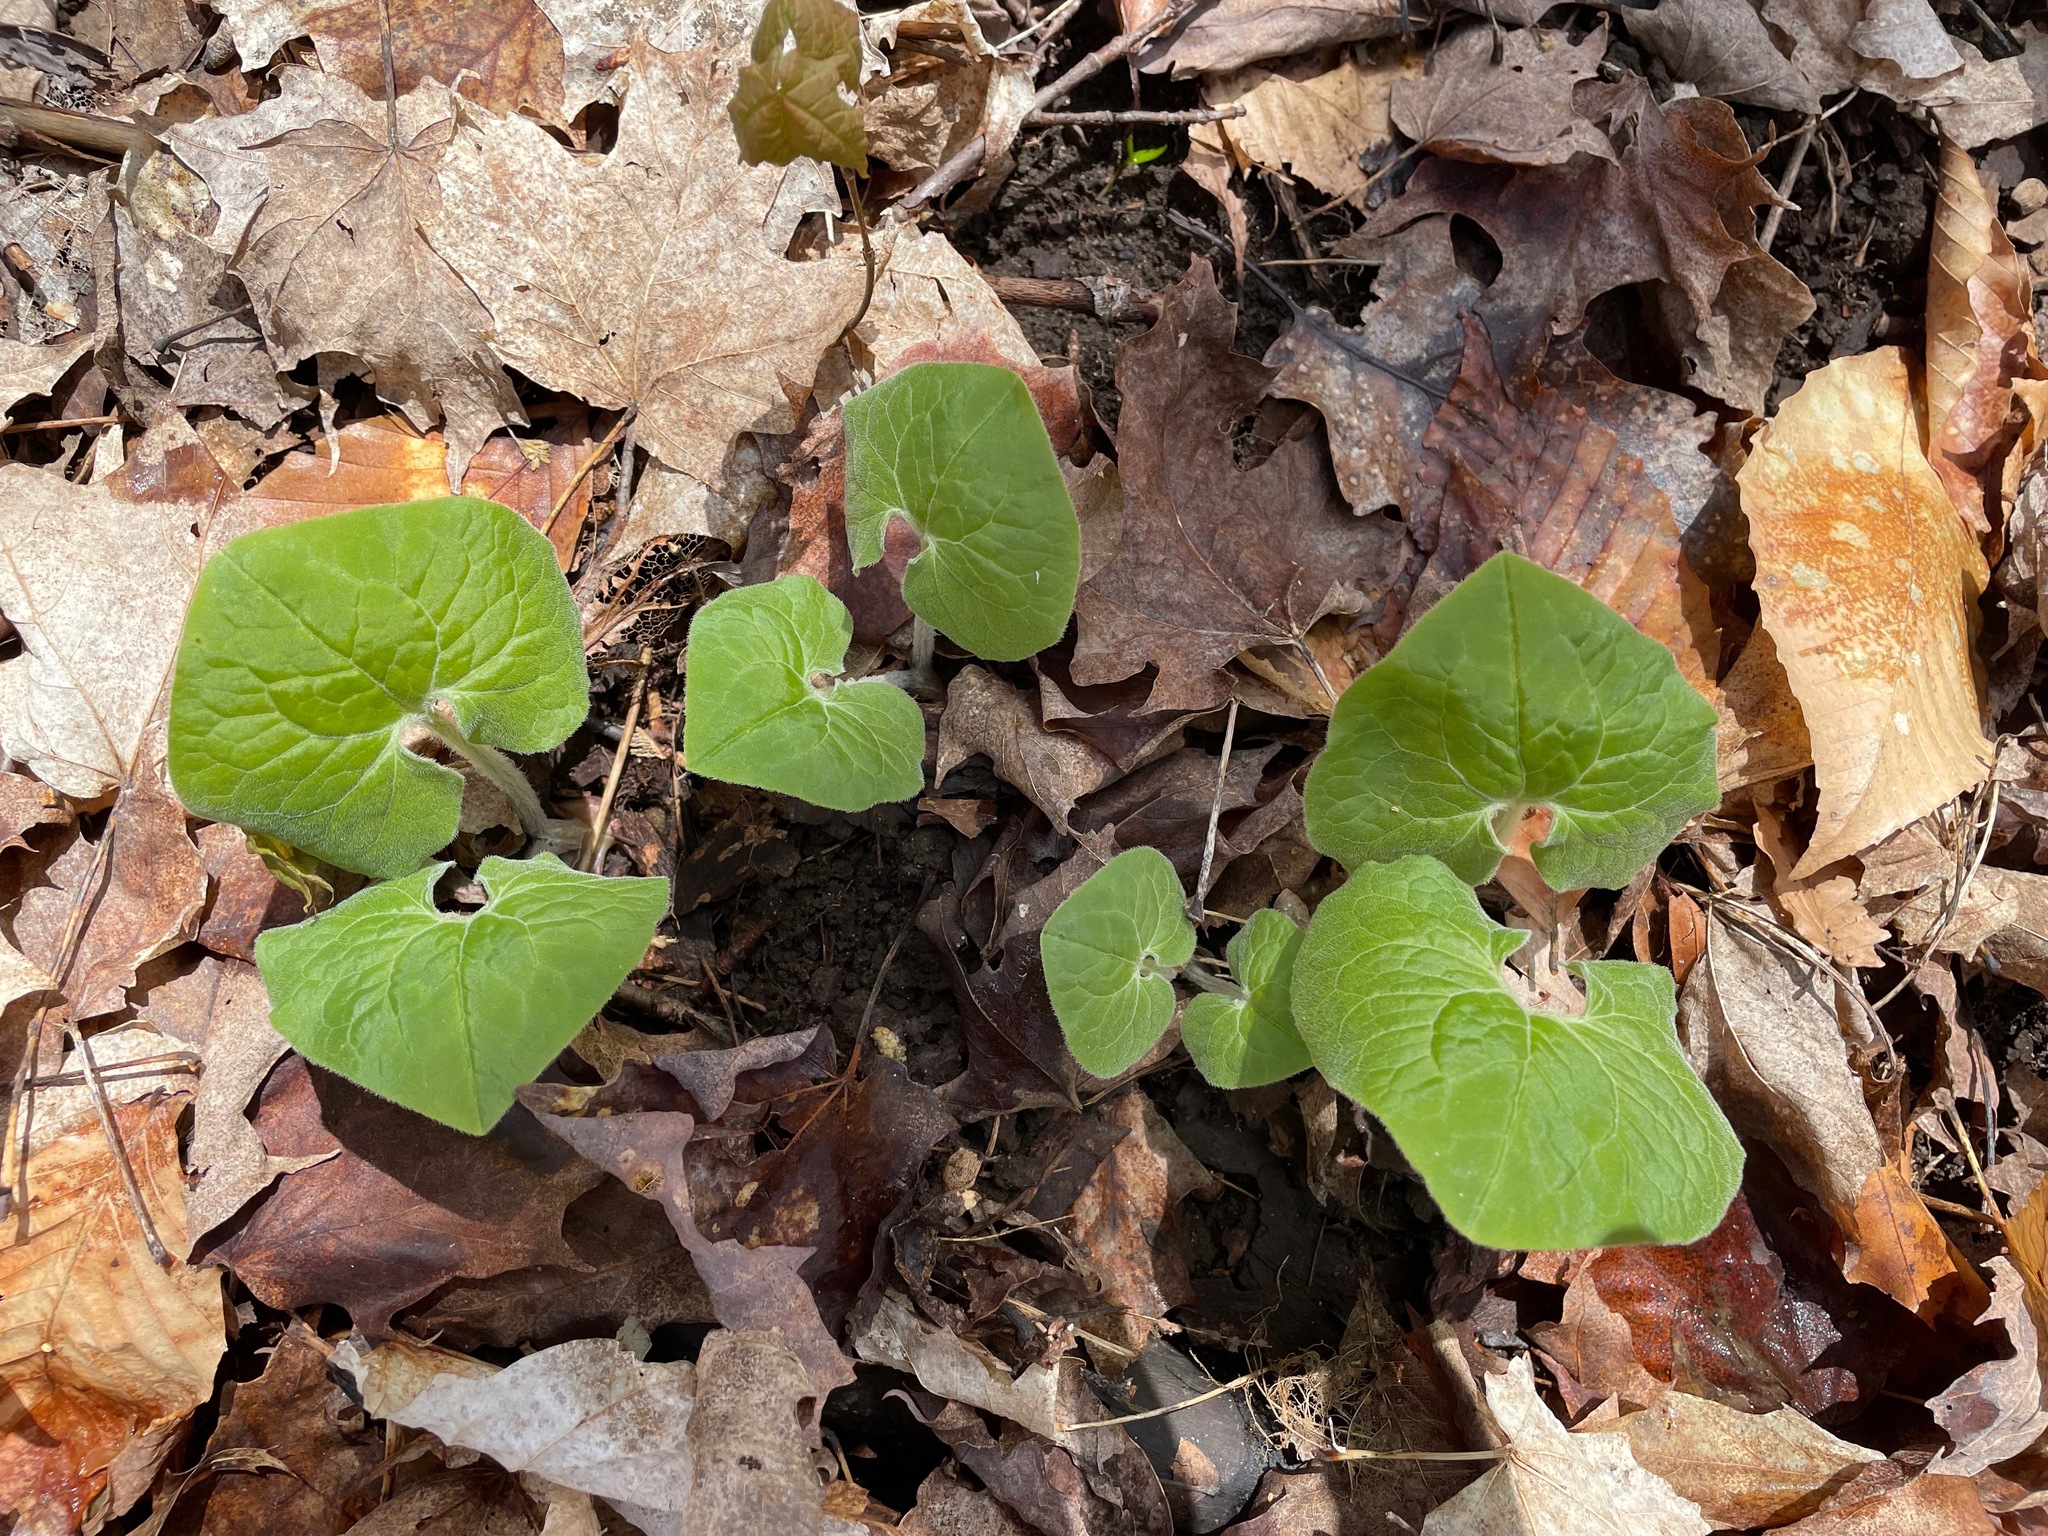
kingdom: Plantae
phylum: Tracheophyta
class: Magnoliopsida
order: Piperales
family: Aristolochiaceae
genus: Asarum
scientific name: Asarum canadense
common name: Wild ginger
